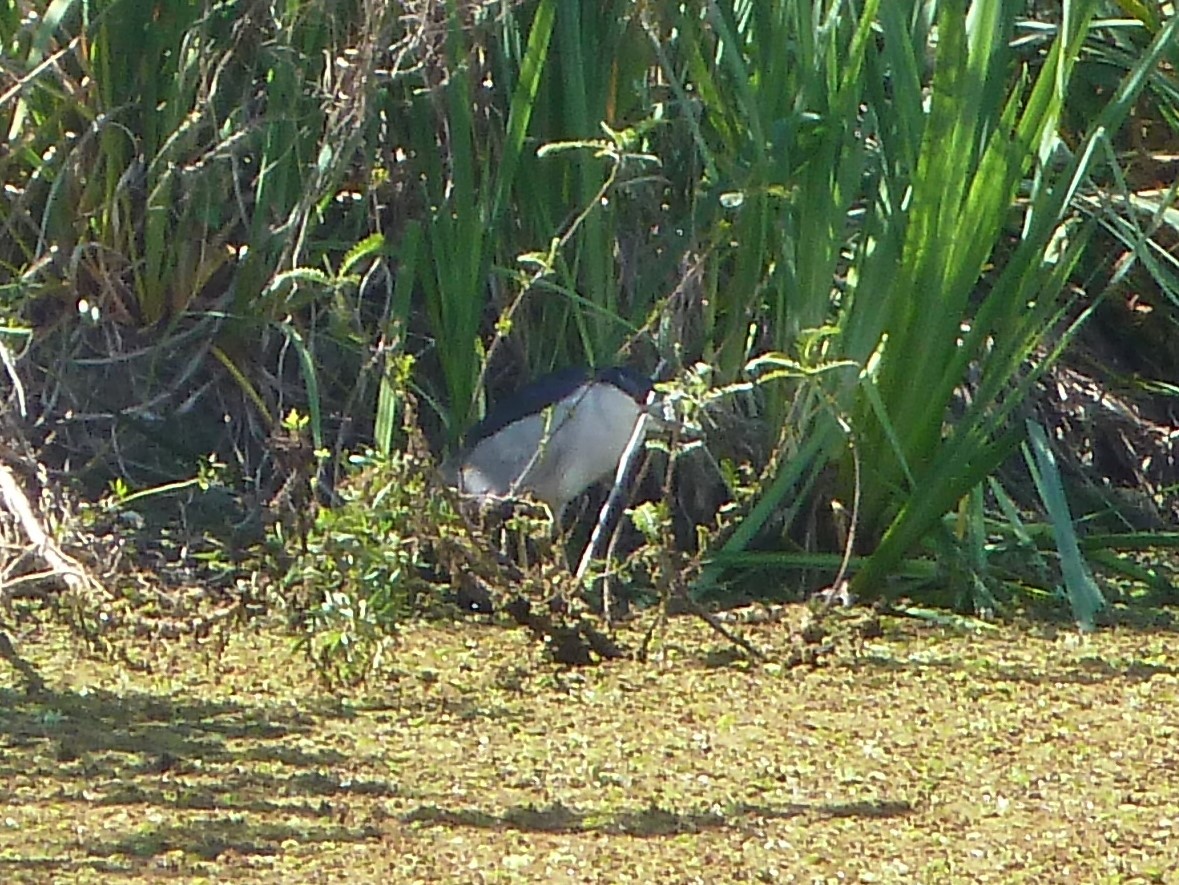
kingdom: Animalia
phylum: Chordata
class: Aves
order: Pelecaniformes
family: Ardeidae
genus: Nycticorax
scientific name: Nycticorax nycticorax
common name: Black-crowned night heron
